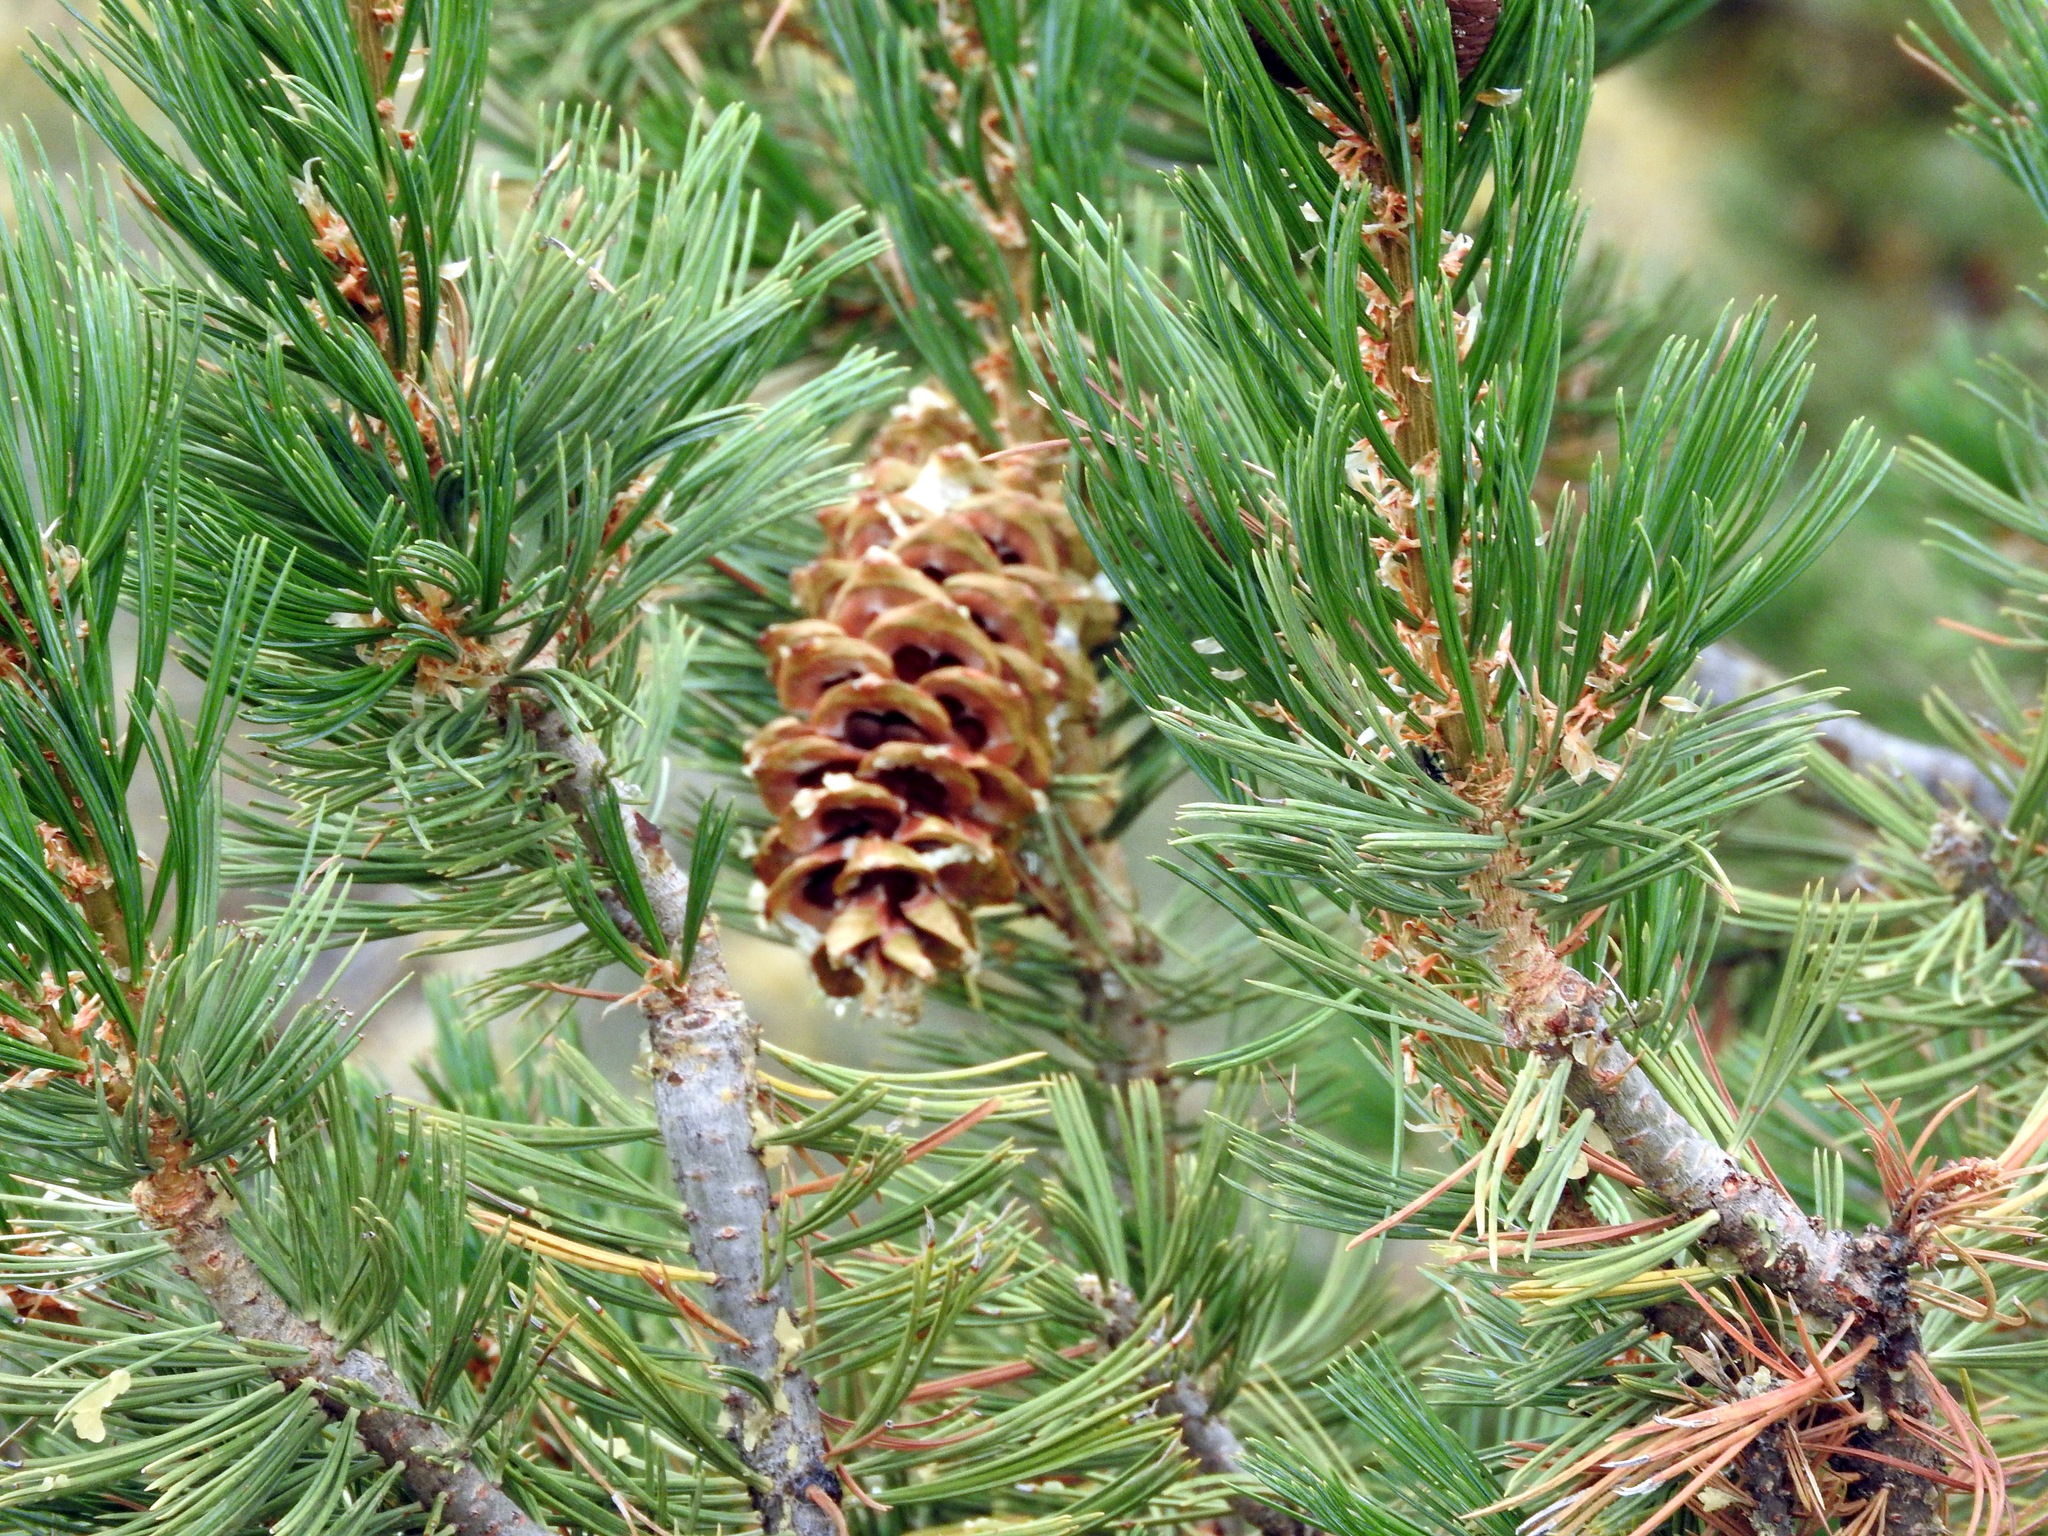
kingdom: Plantae
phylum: Tracheophyta
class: Pinopsida
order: Pinales
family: Pinaceae
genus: Pinus
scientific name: Pinus flexilis
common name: Limber pine
